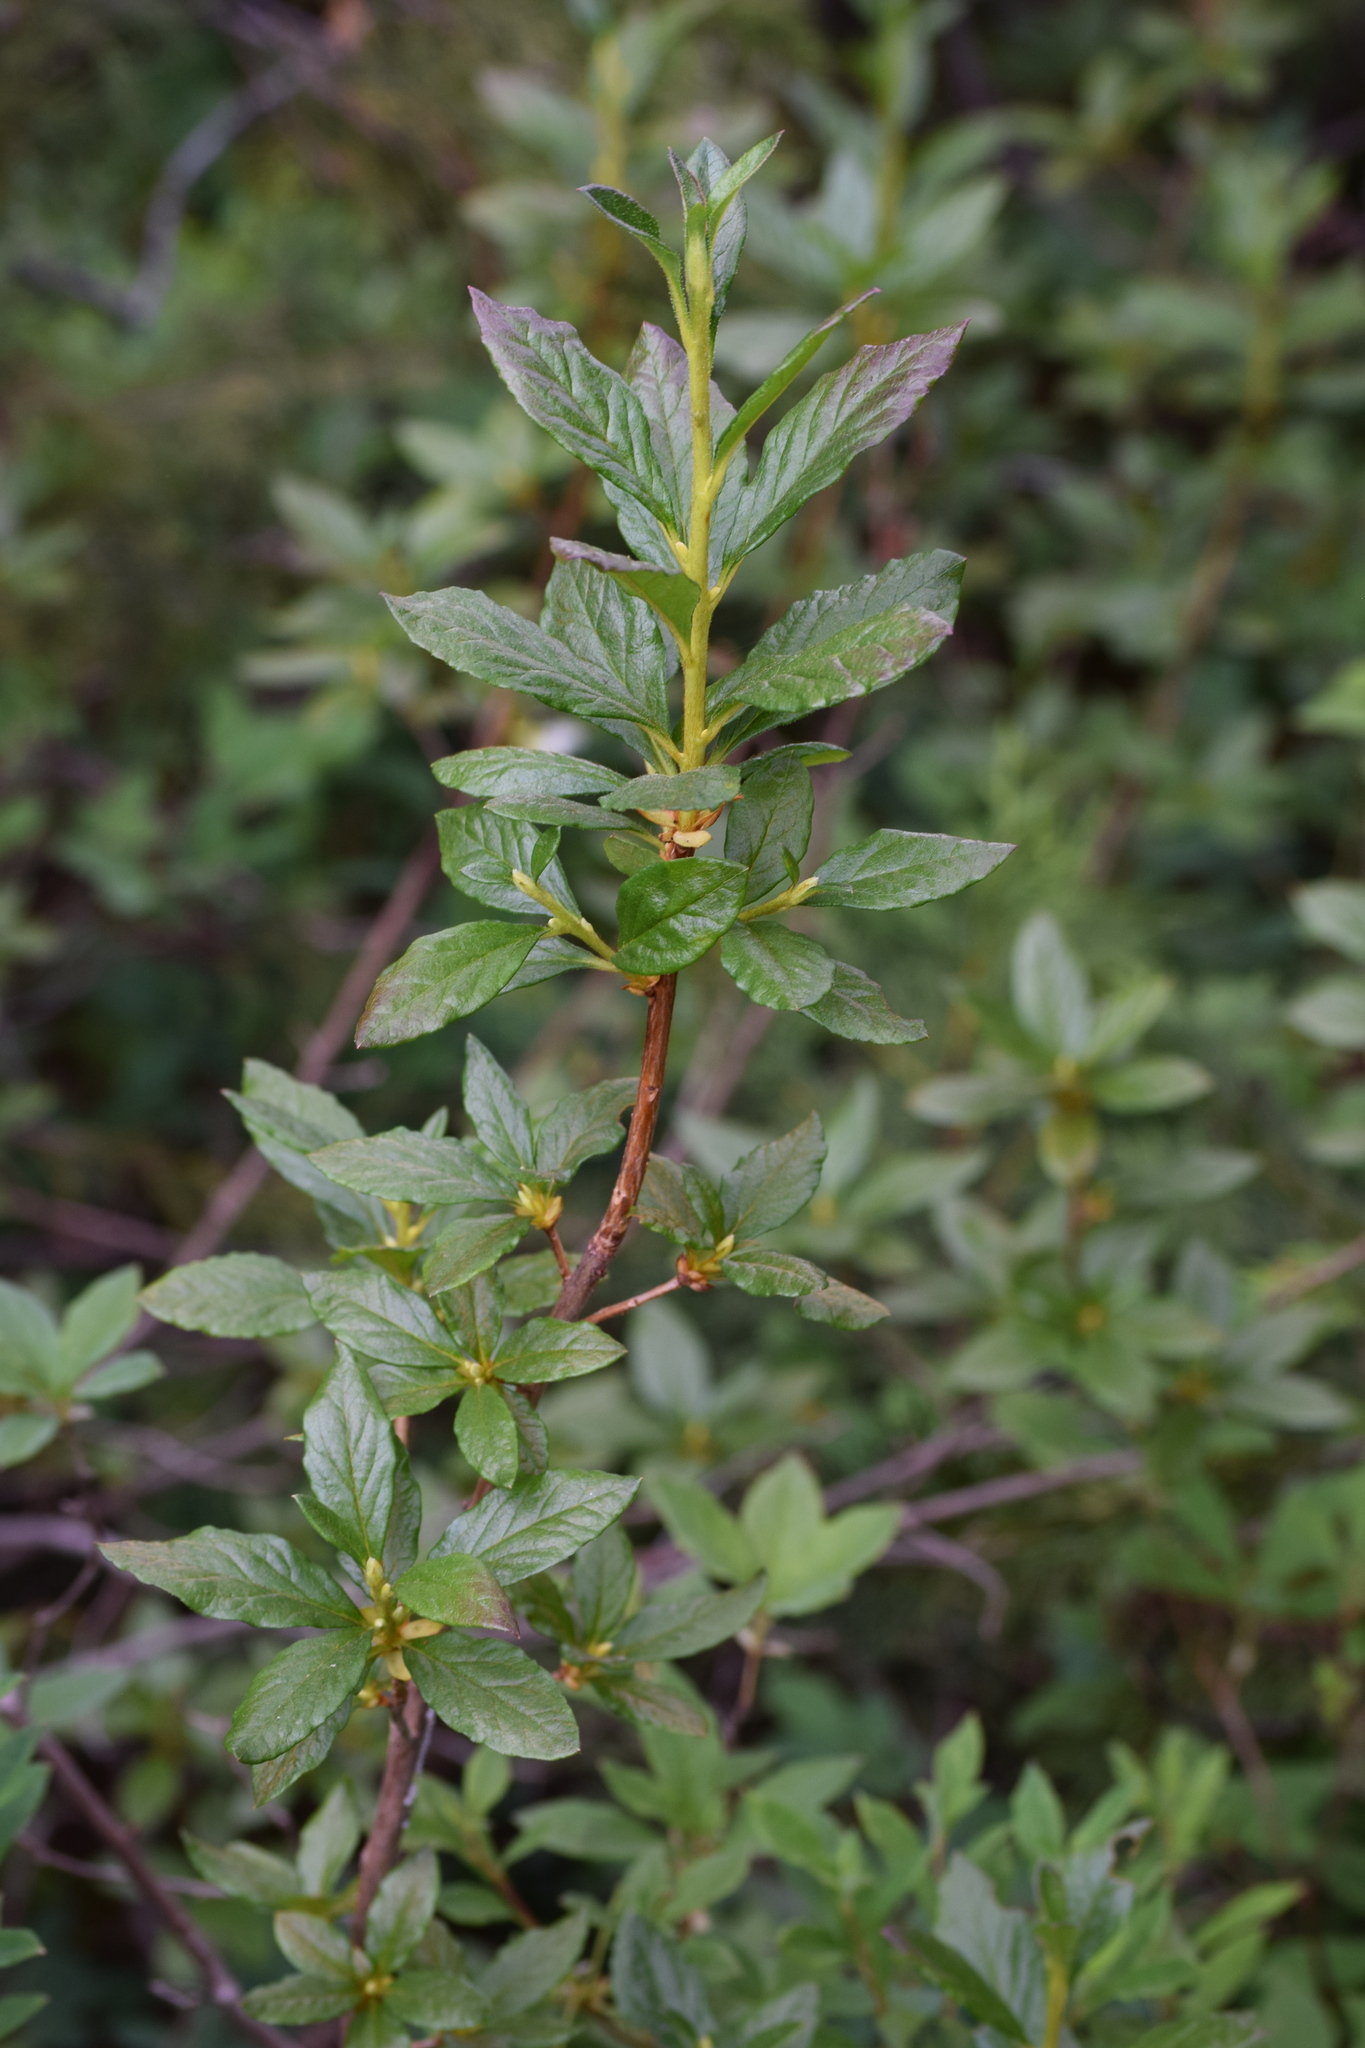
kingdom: Plantae
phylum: Tracheophyta
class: Magnoliopsida
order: Ericales
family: Ericaceae
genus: Rhododendron
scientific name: Rhododendron albiflorum
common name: White rhododendron
